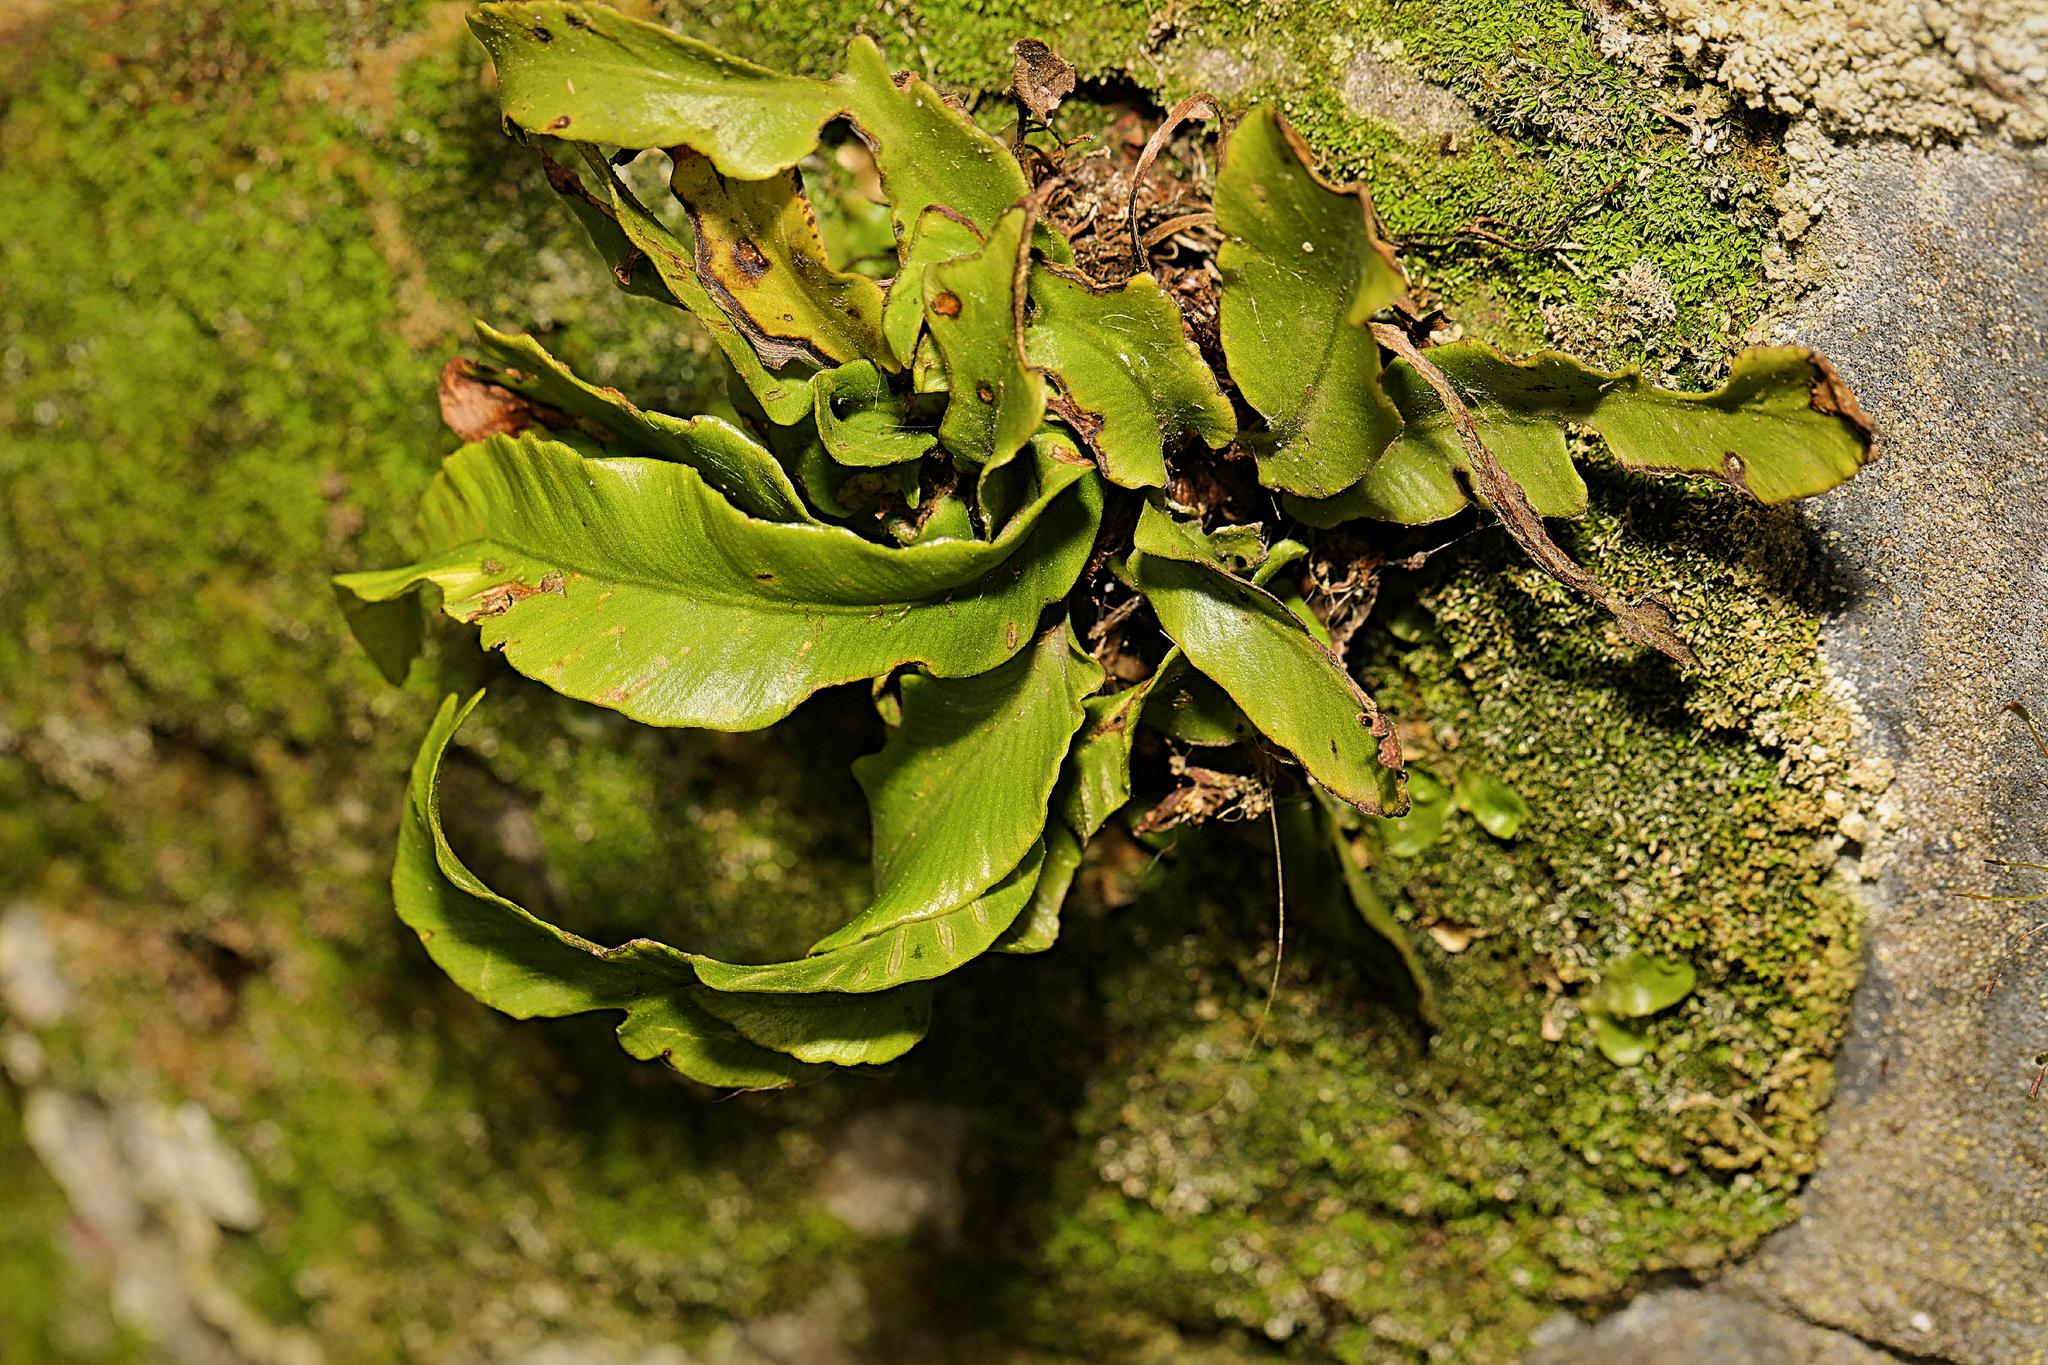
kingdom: Plantae
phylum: Tracheophyta
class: Polypodiopsida
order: Polypodiales
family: Aspleniaceae
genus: Asplenium
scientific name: Asplenium scolopendrium
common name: Hart's-tongue fern
